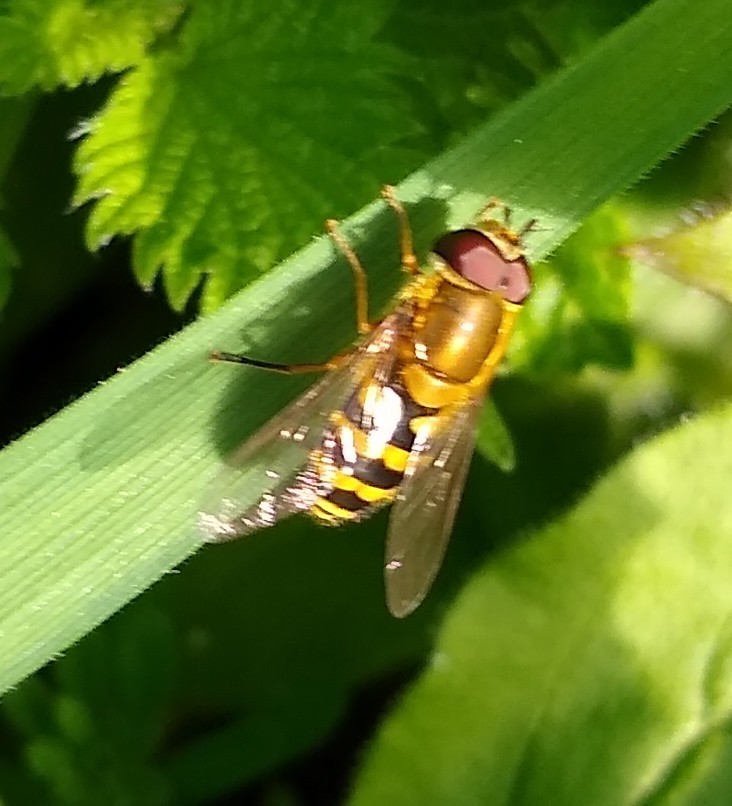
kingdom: Animalia
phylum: Arthropoda
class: Insecta
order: Diptera
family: Syrphidae
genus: Syrphus
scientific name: Syrphus
